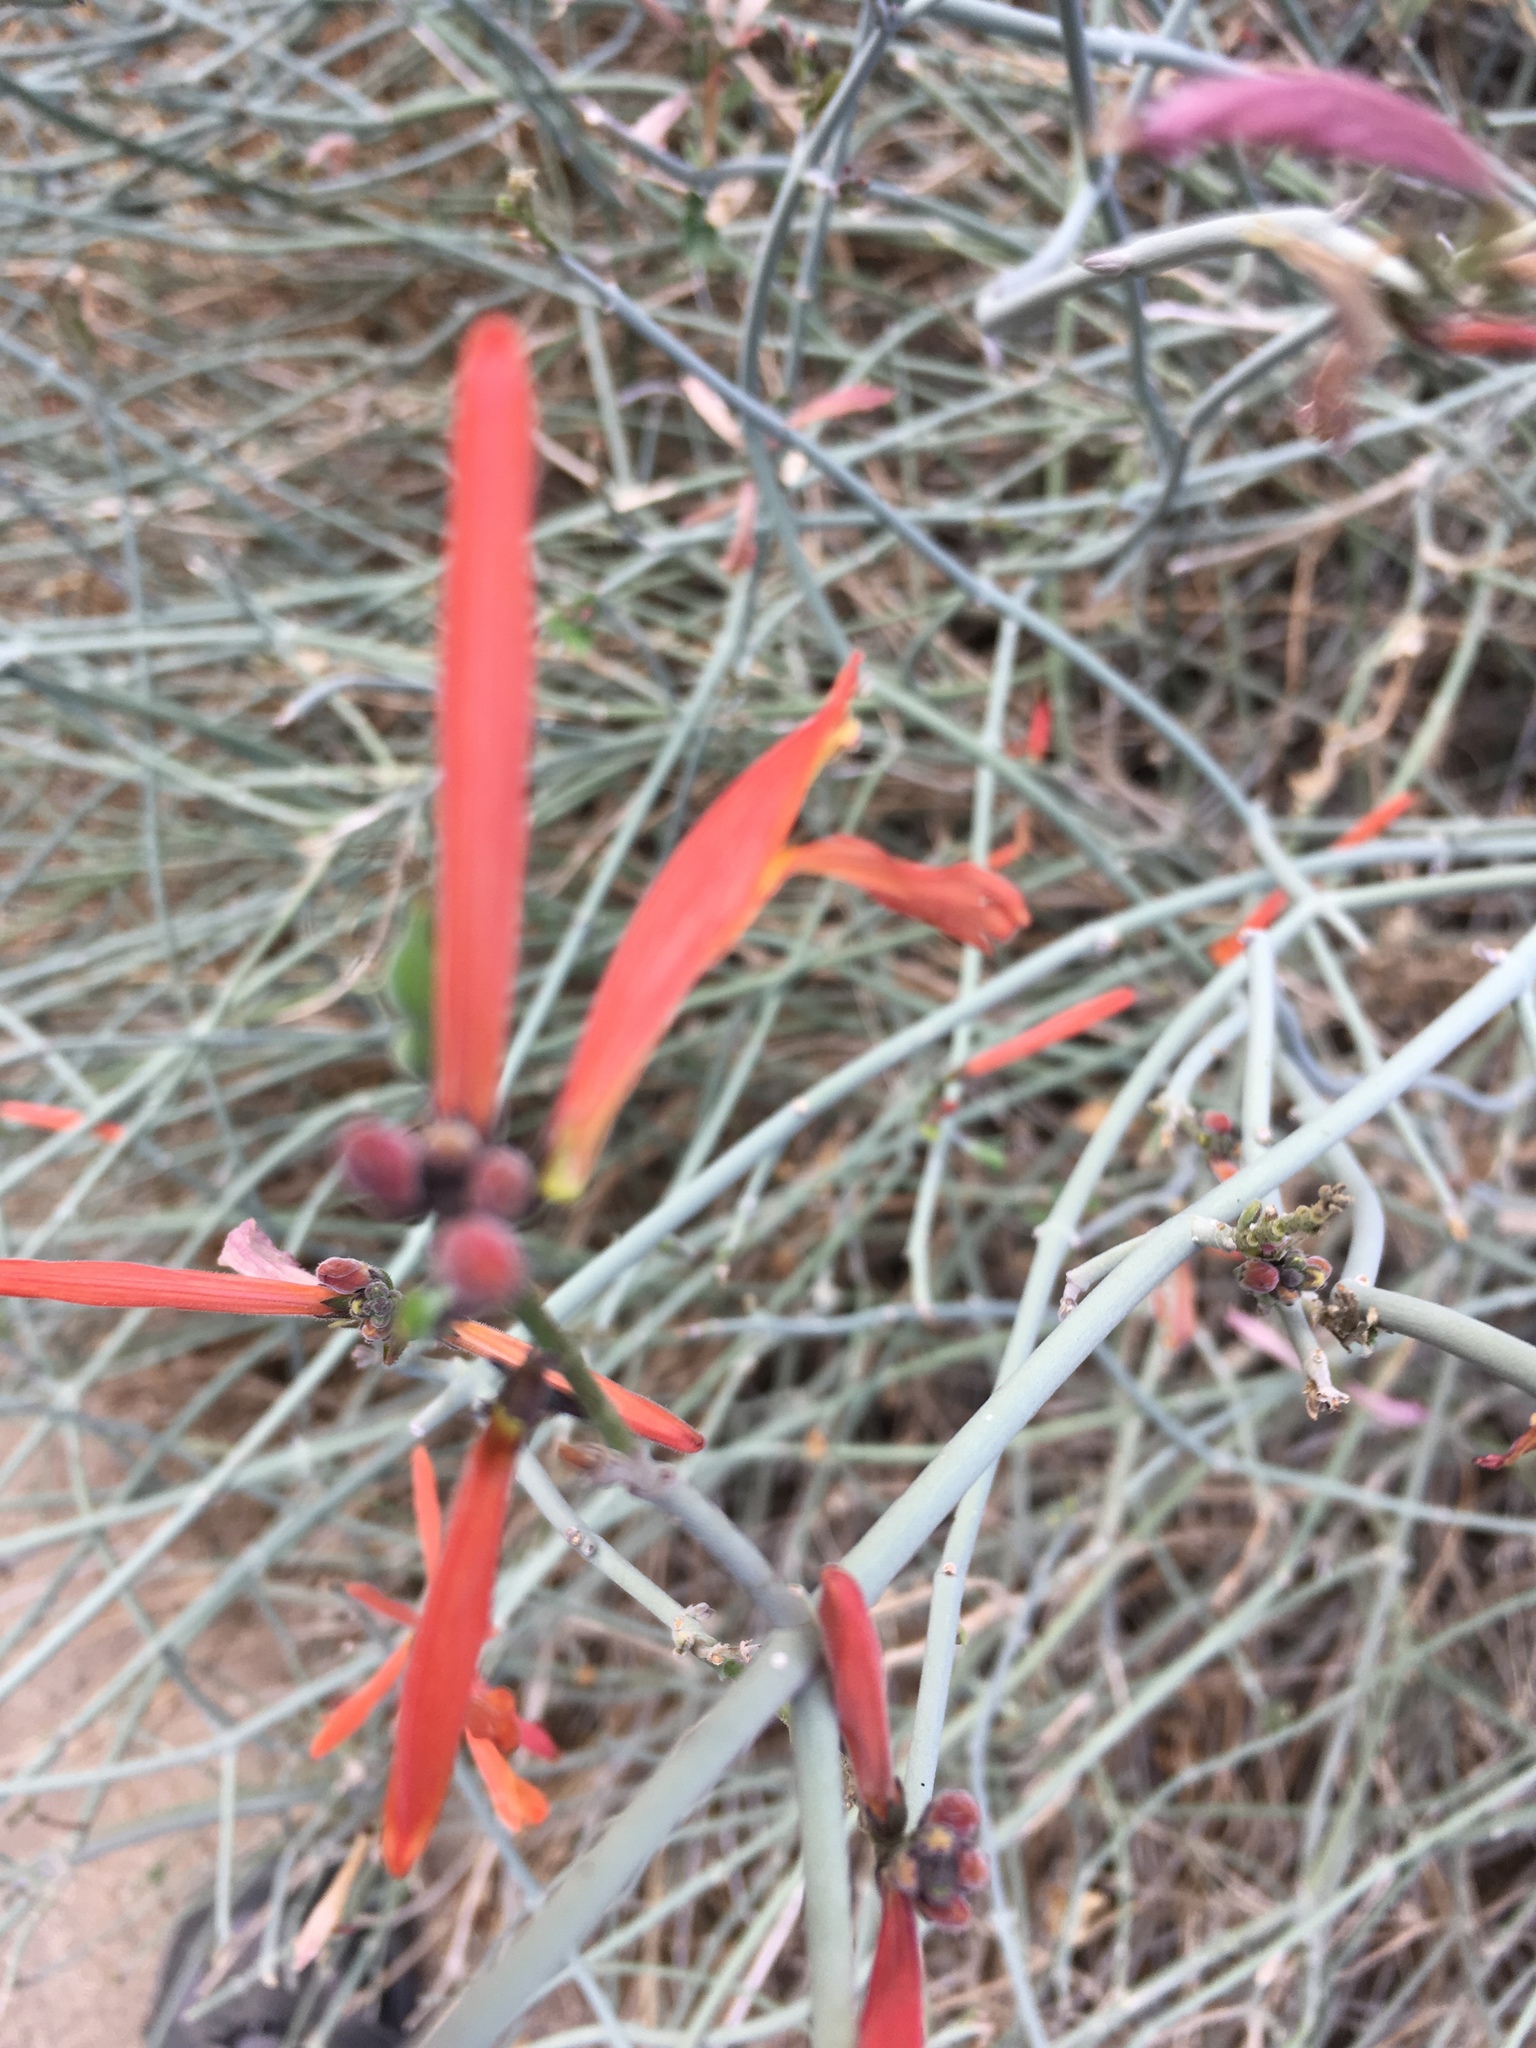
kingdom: Plantae
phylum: Tracheophyta
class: Magnoliopsida
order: Lamiales
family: Acanthaceae
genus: Justicia
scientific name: Justicia californica
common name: Chuparosa-honeysuckle
